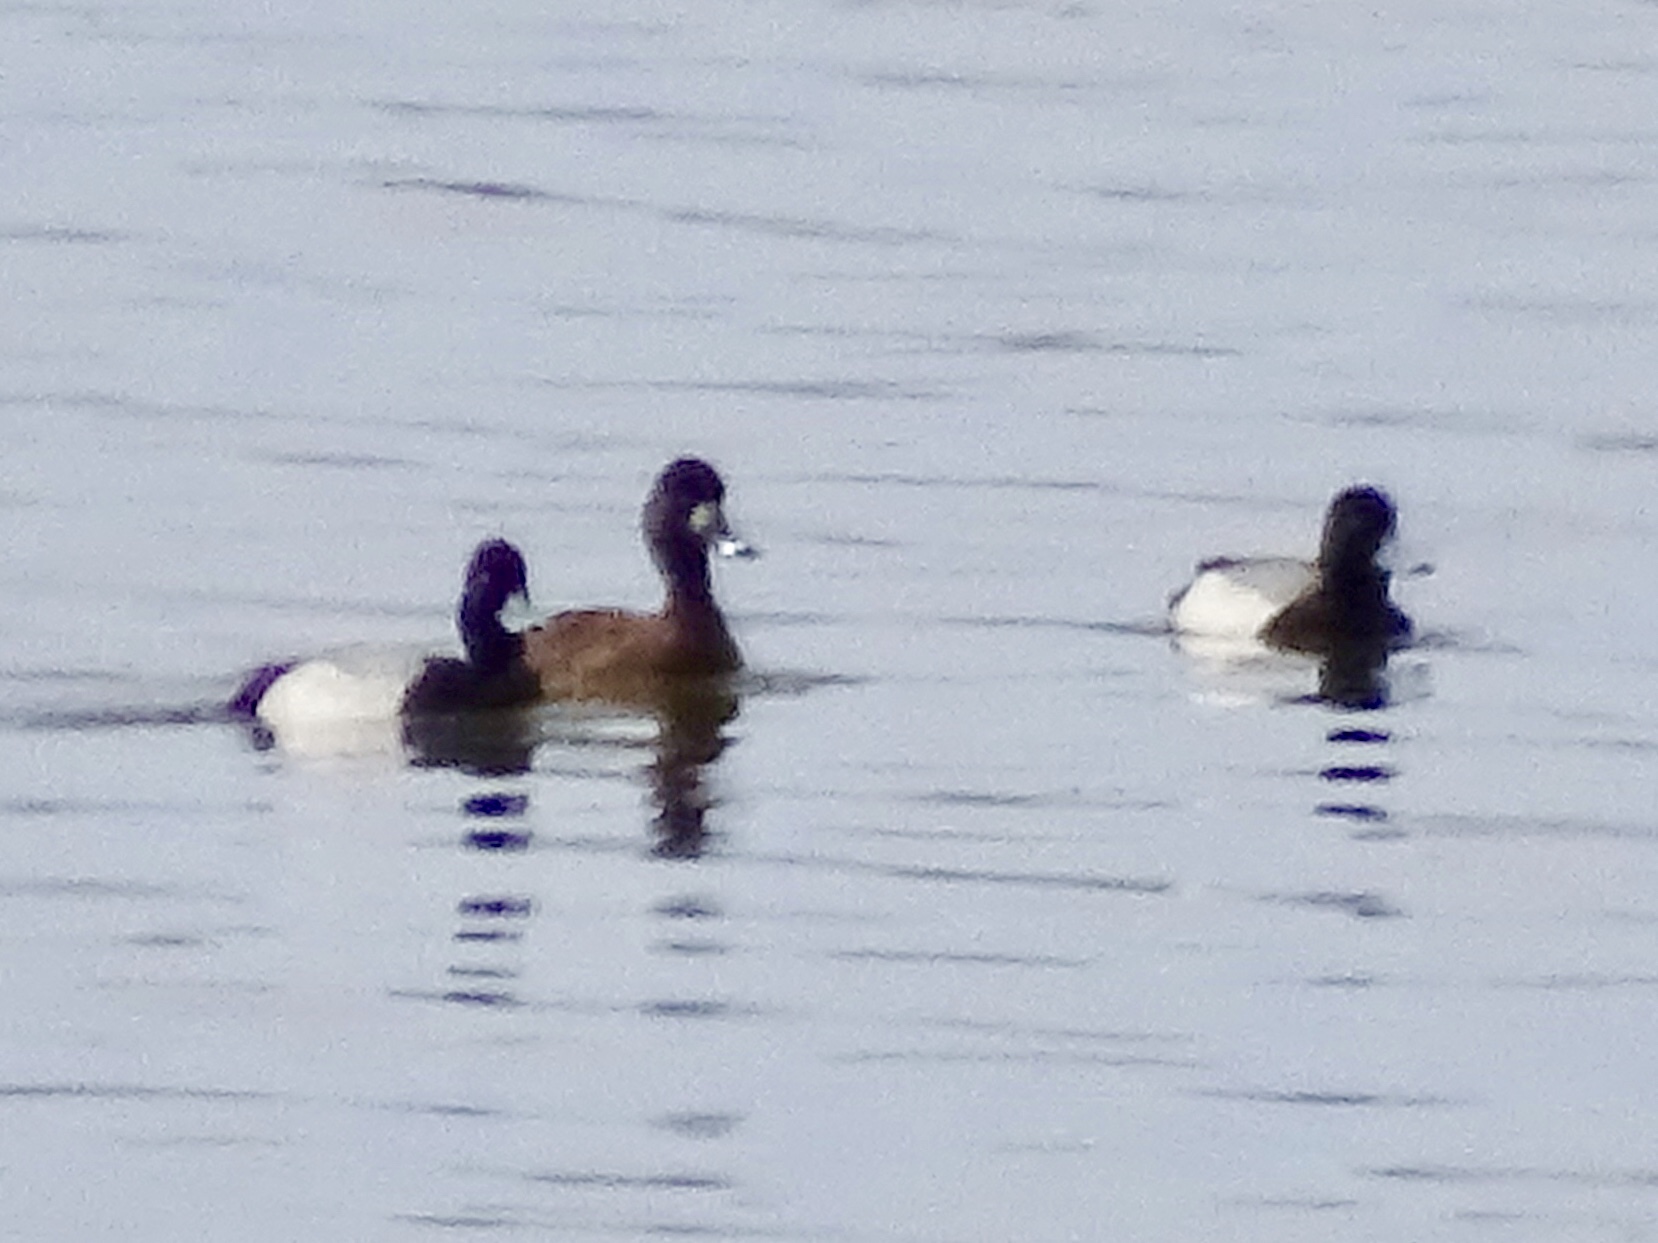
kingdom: Animalia
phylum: Chordata
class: Aves
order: Anseriformes
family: Anatidae
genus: Aythya
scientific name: Aythya affinis
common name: Lesser scaup
